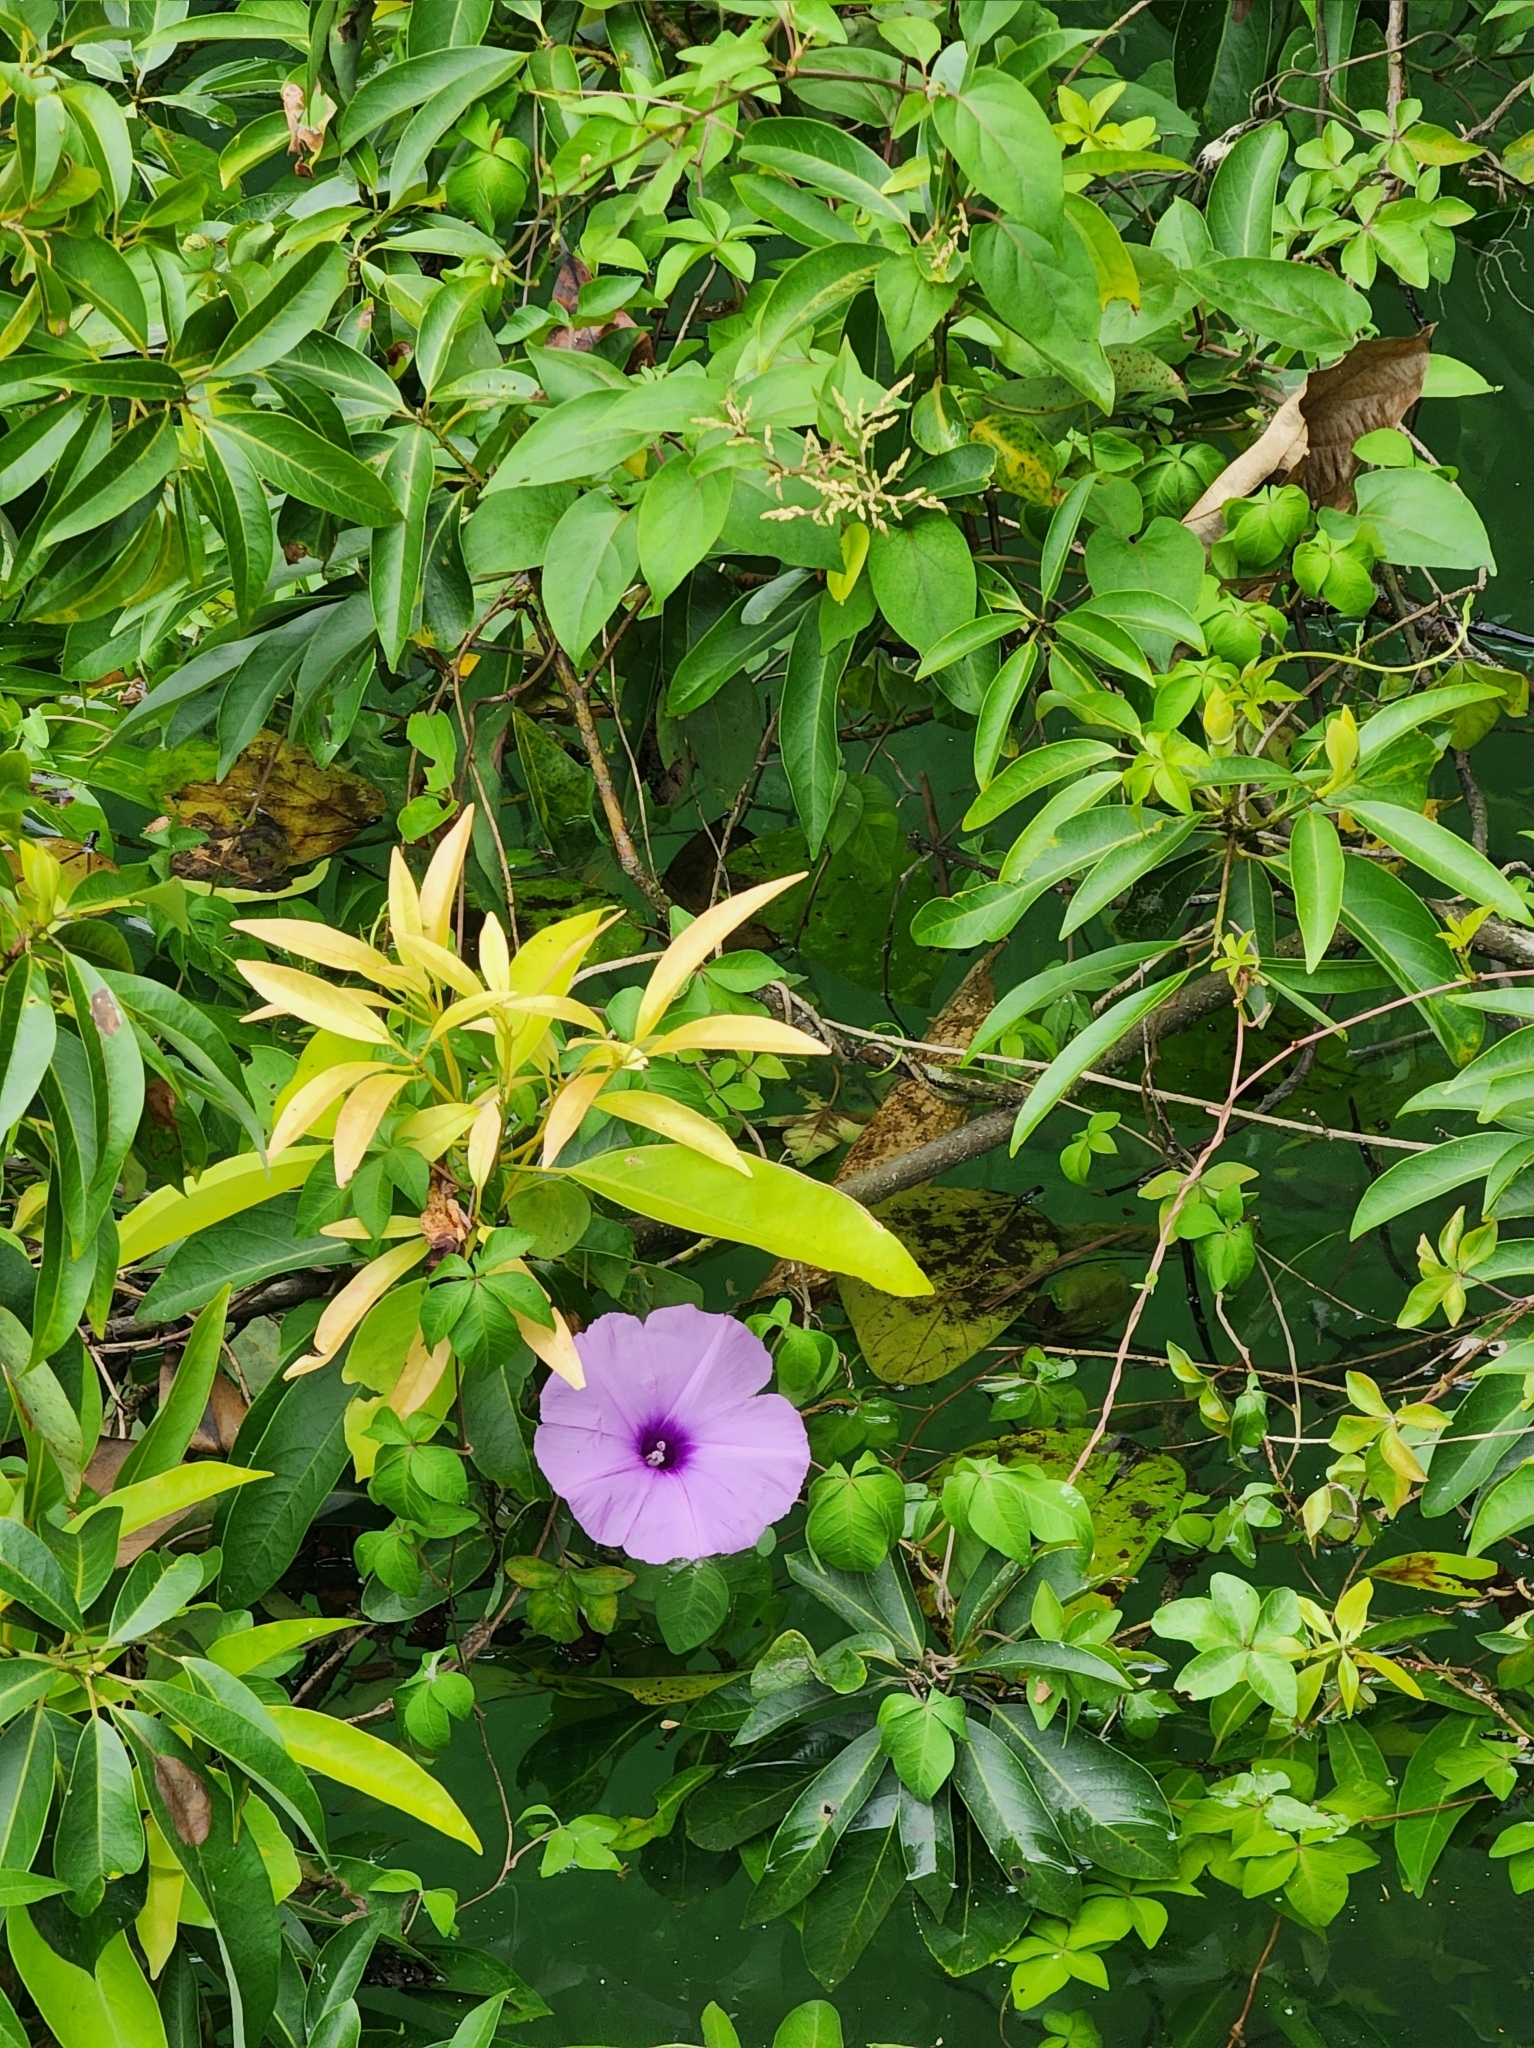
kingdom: Plantae
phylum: Tracheophyta
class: Magnoliopsida
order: Solanales
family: Convolvulaceae
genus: Ipomoea
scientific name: Ipomoea cairica
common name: Mile a minute vine
